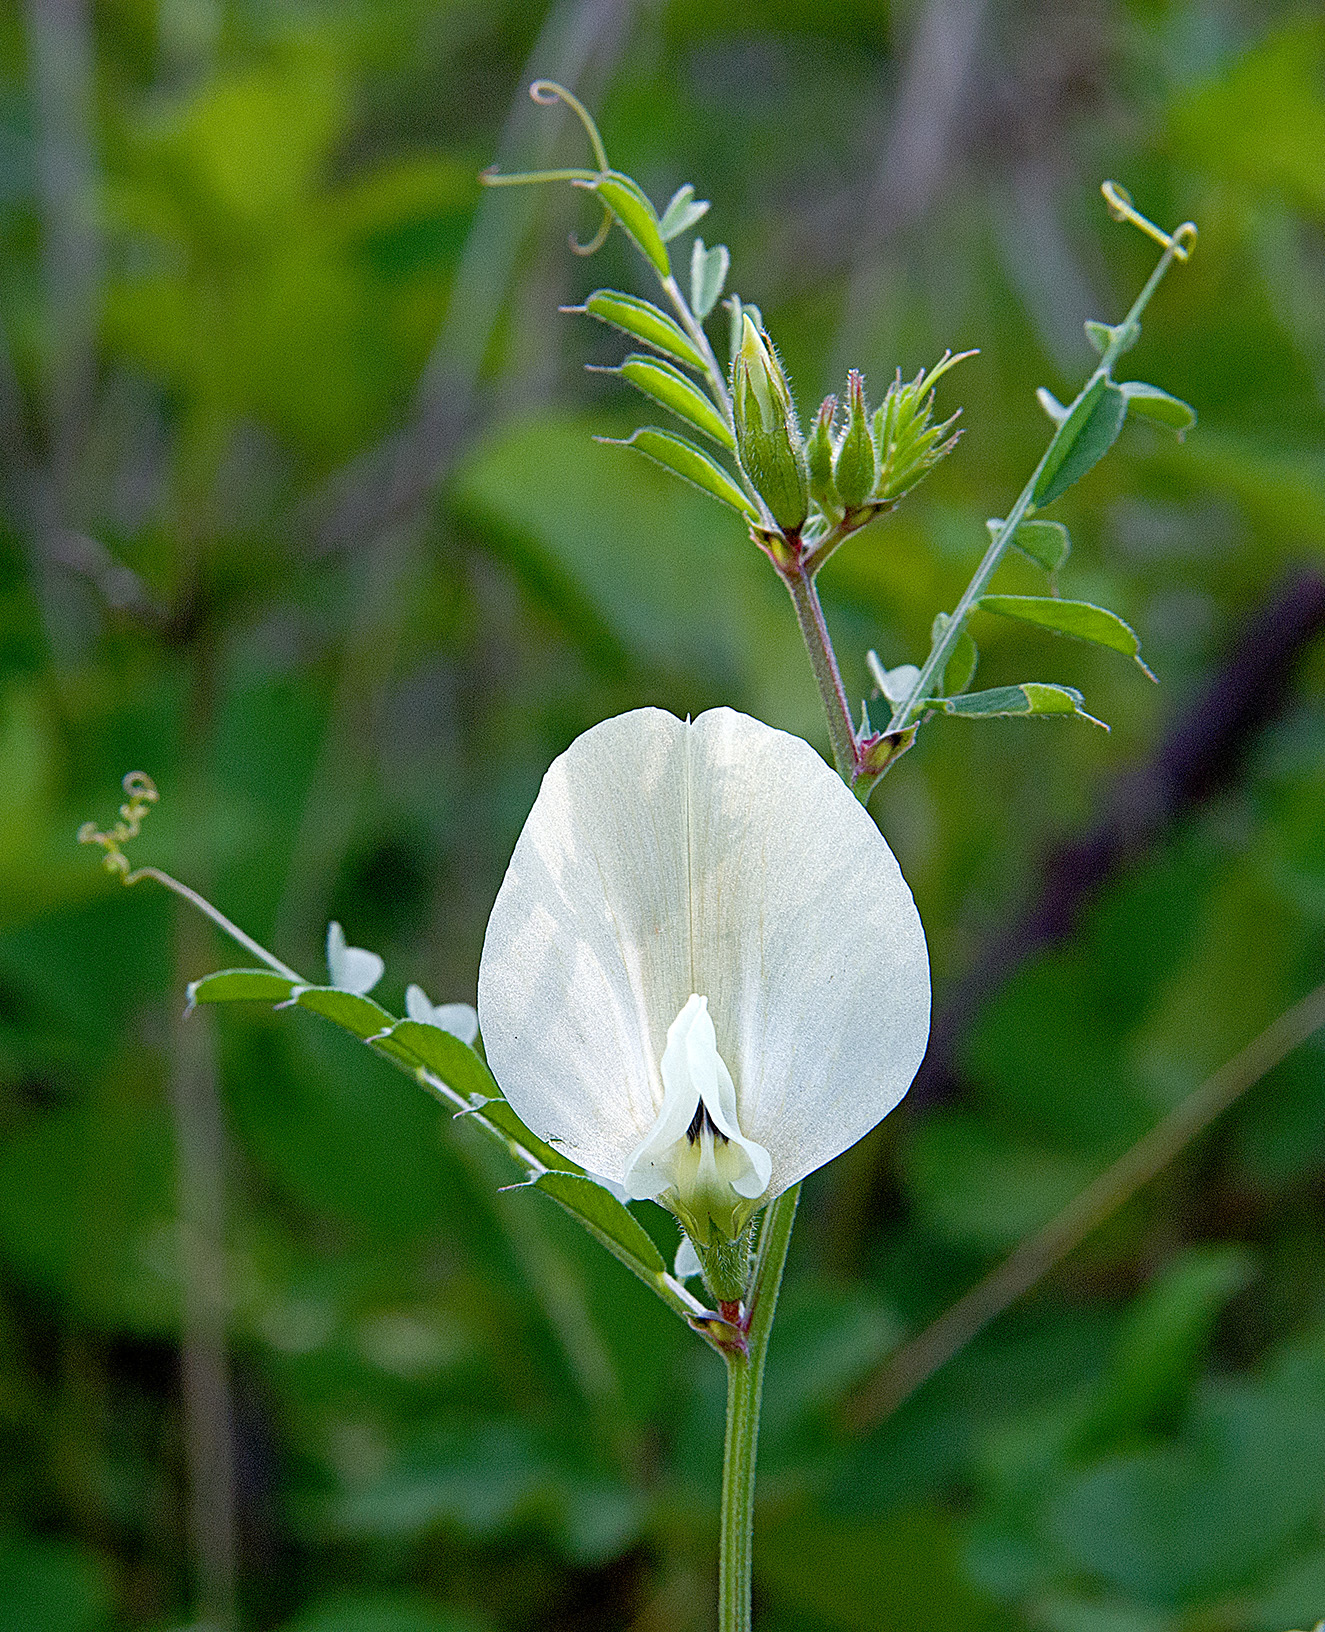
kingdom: Plantae
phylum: Tracheophyta
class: Magnoliopsida
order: Fabales
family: Fabaceae
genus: Vicia
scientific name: Vicia grandiflora
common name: Large yellow vetch
